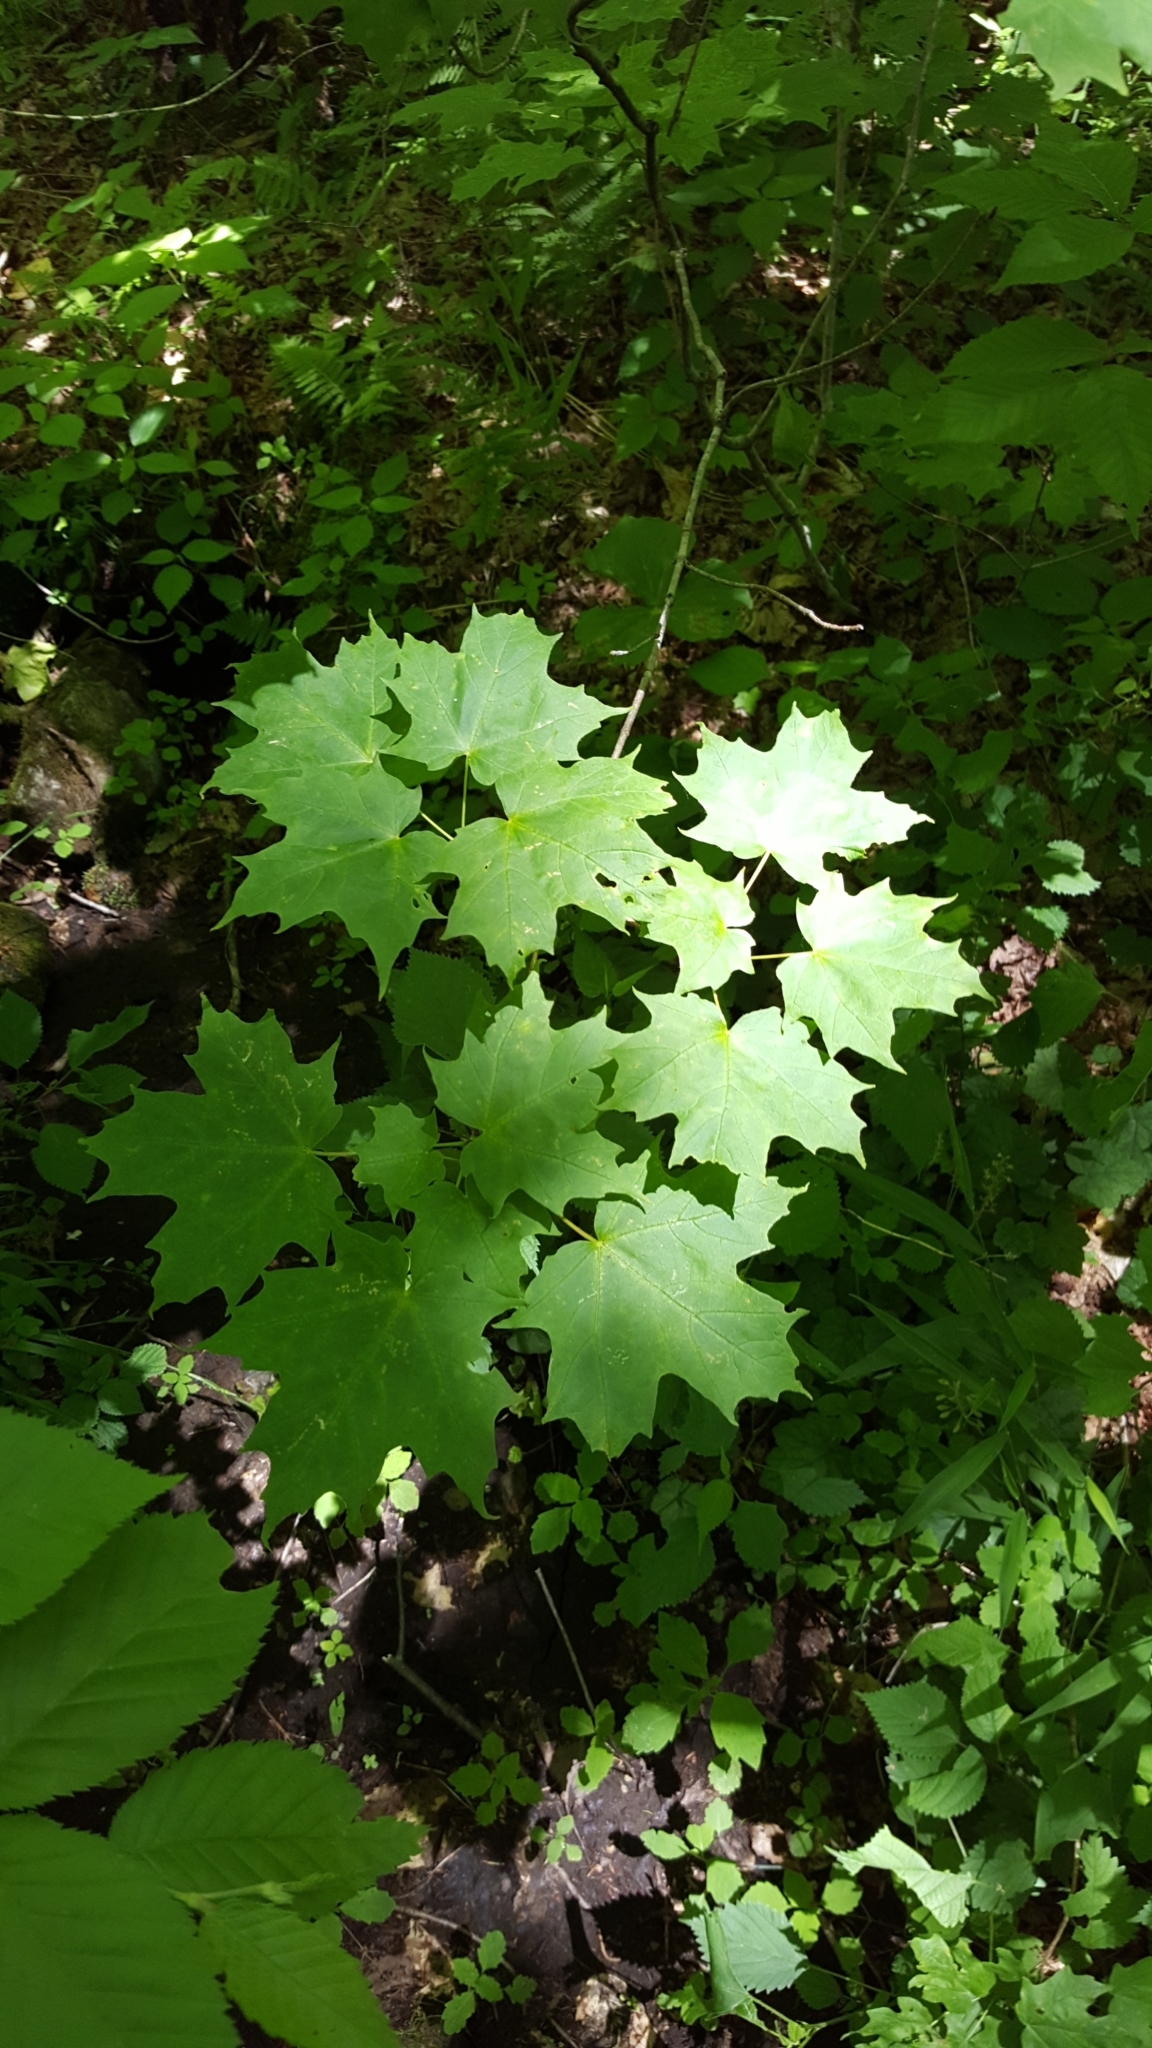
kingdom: Plantae
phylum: Tracheophyta
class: Magnoliopsida
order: Sapindales
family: Sapindaceae
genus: Acer
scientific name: Acer saccharum
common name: Sugar maple
